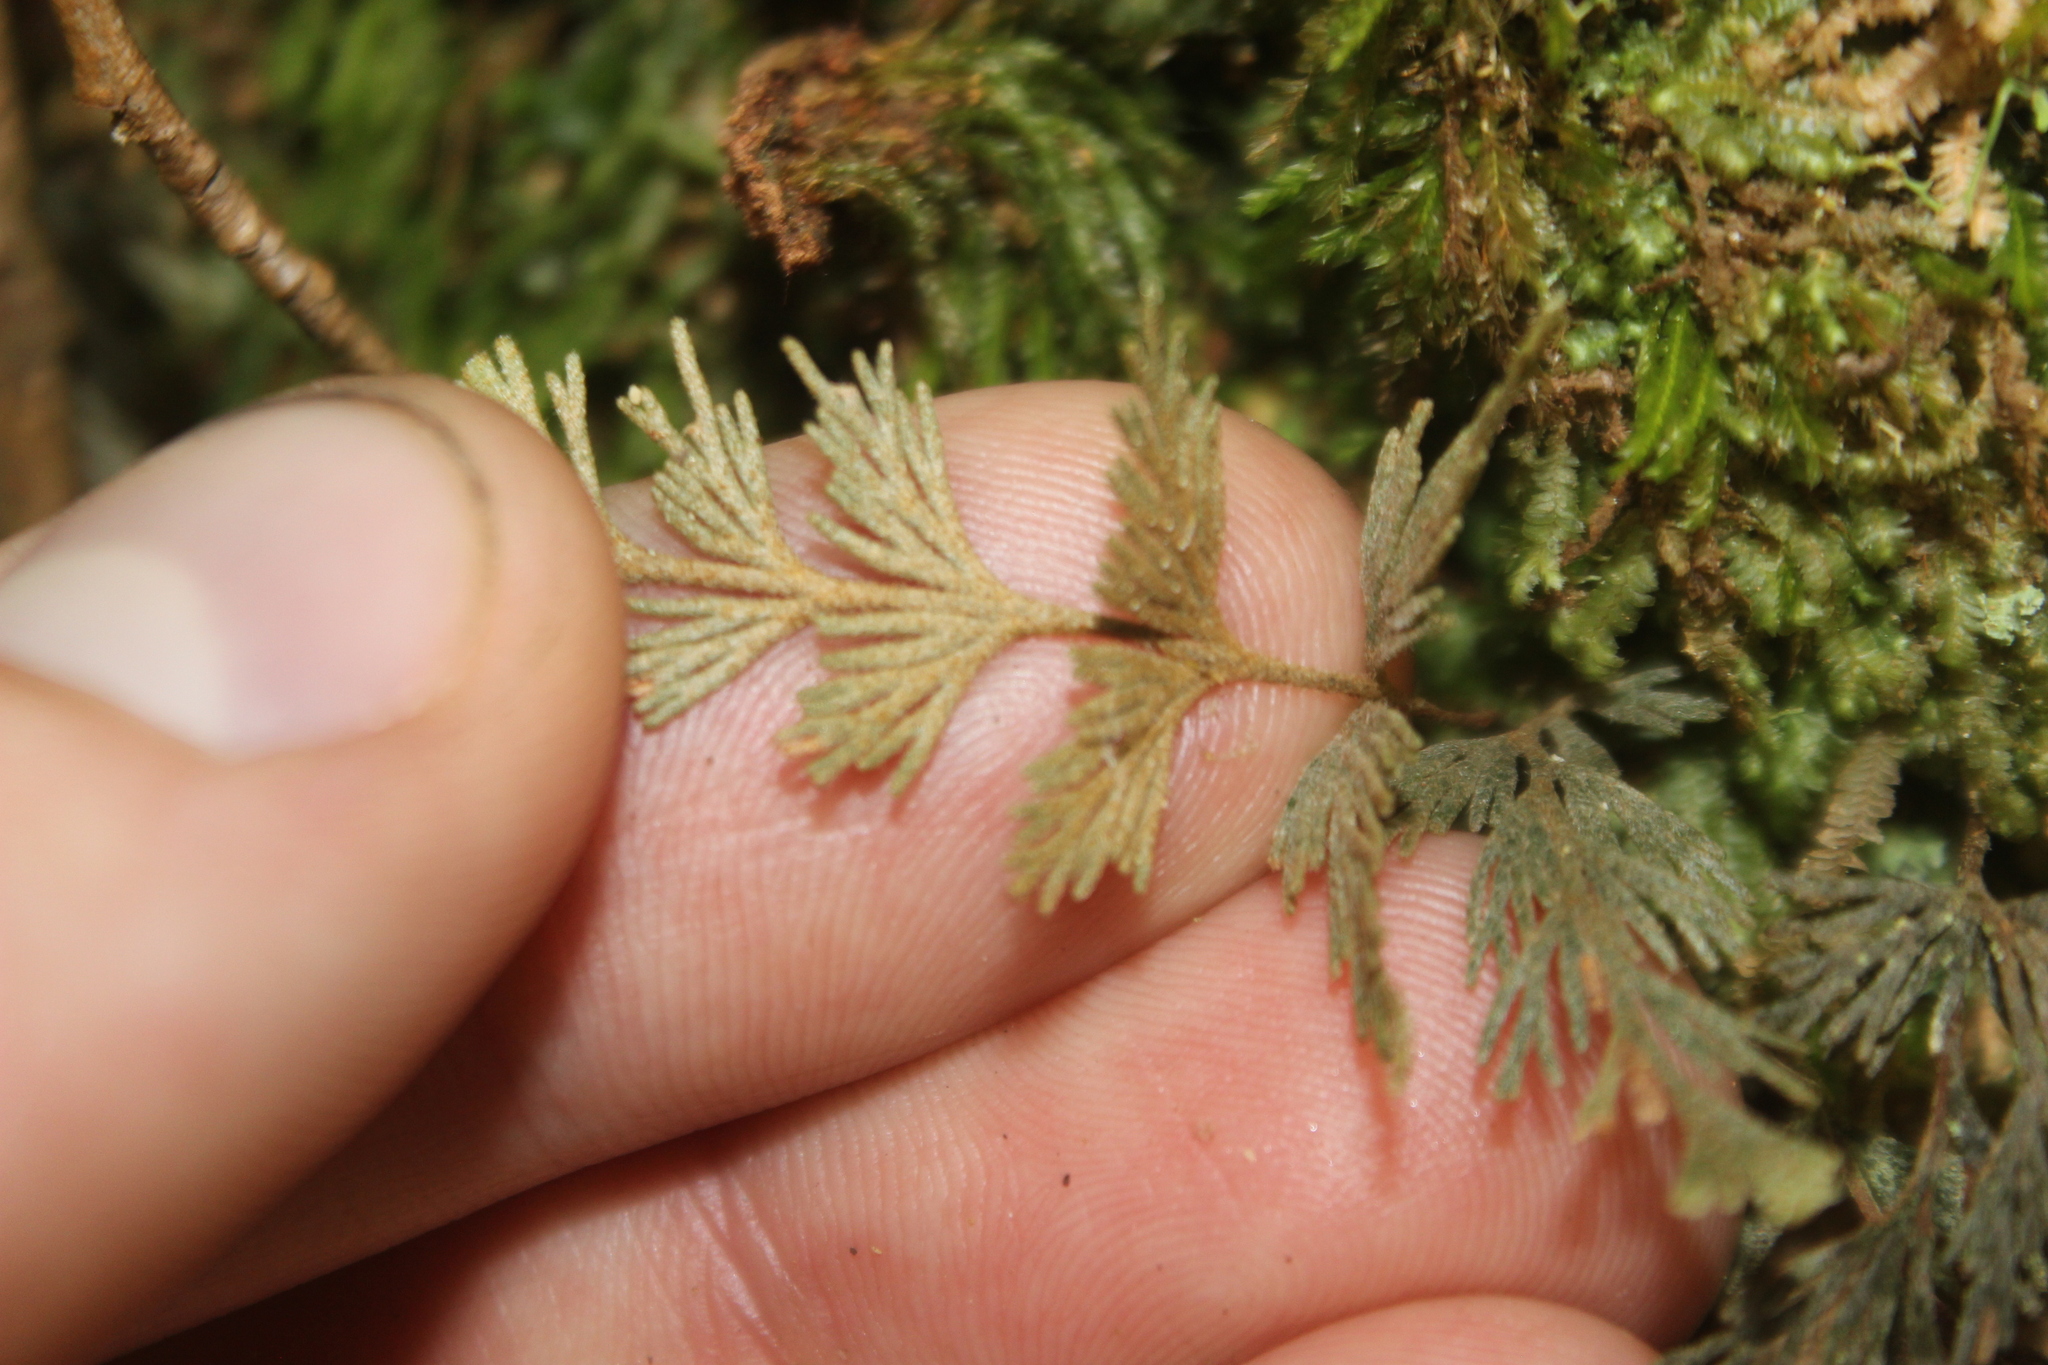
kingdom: Plantae
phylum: Tracheophyta
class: Polypodiopsida
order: Hymenophyllales
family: Hymenophyllaceae
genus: Hymenophyllum
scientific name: Hymenophyllum malingii
